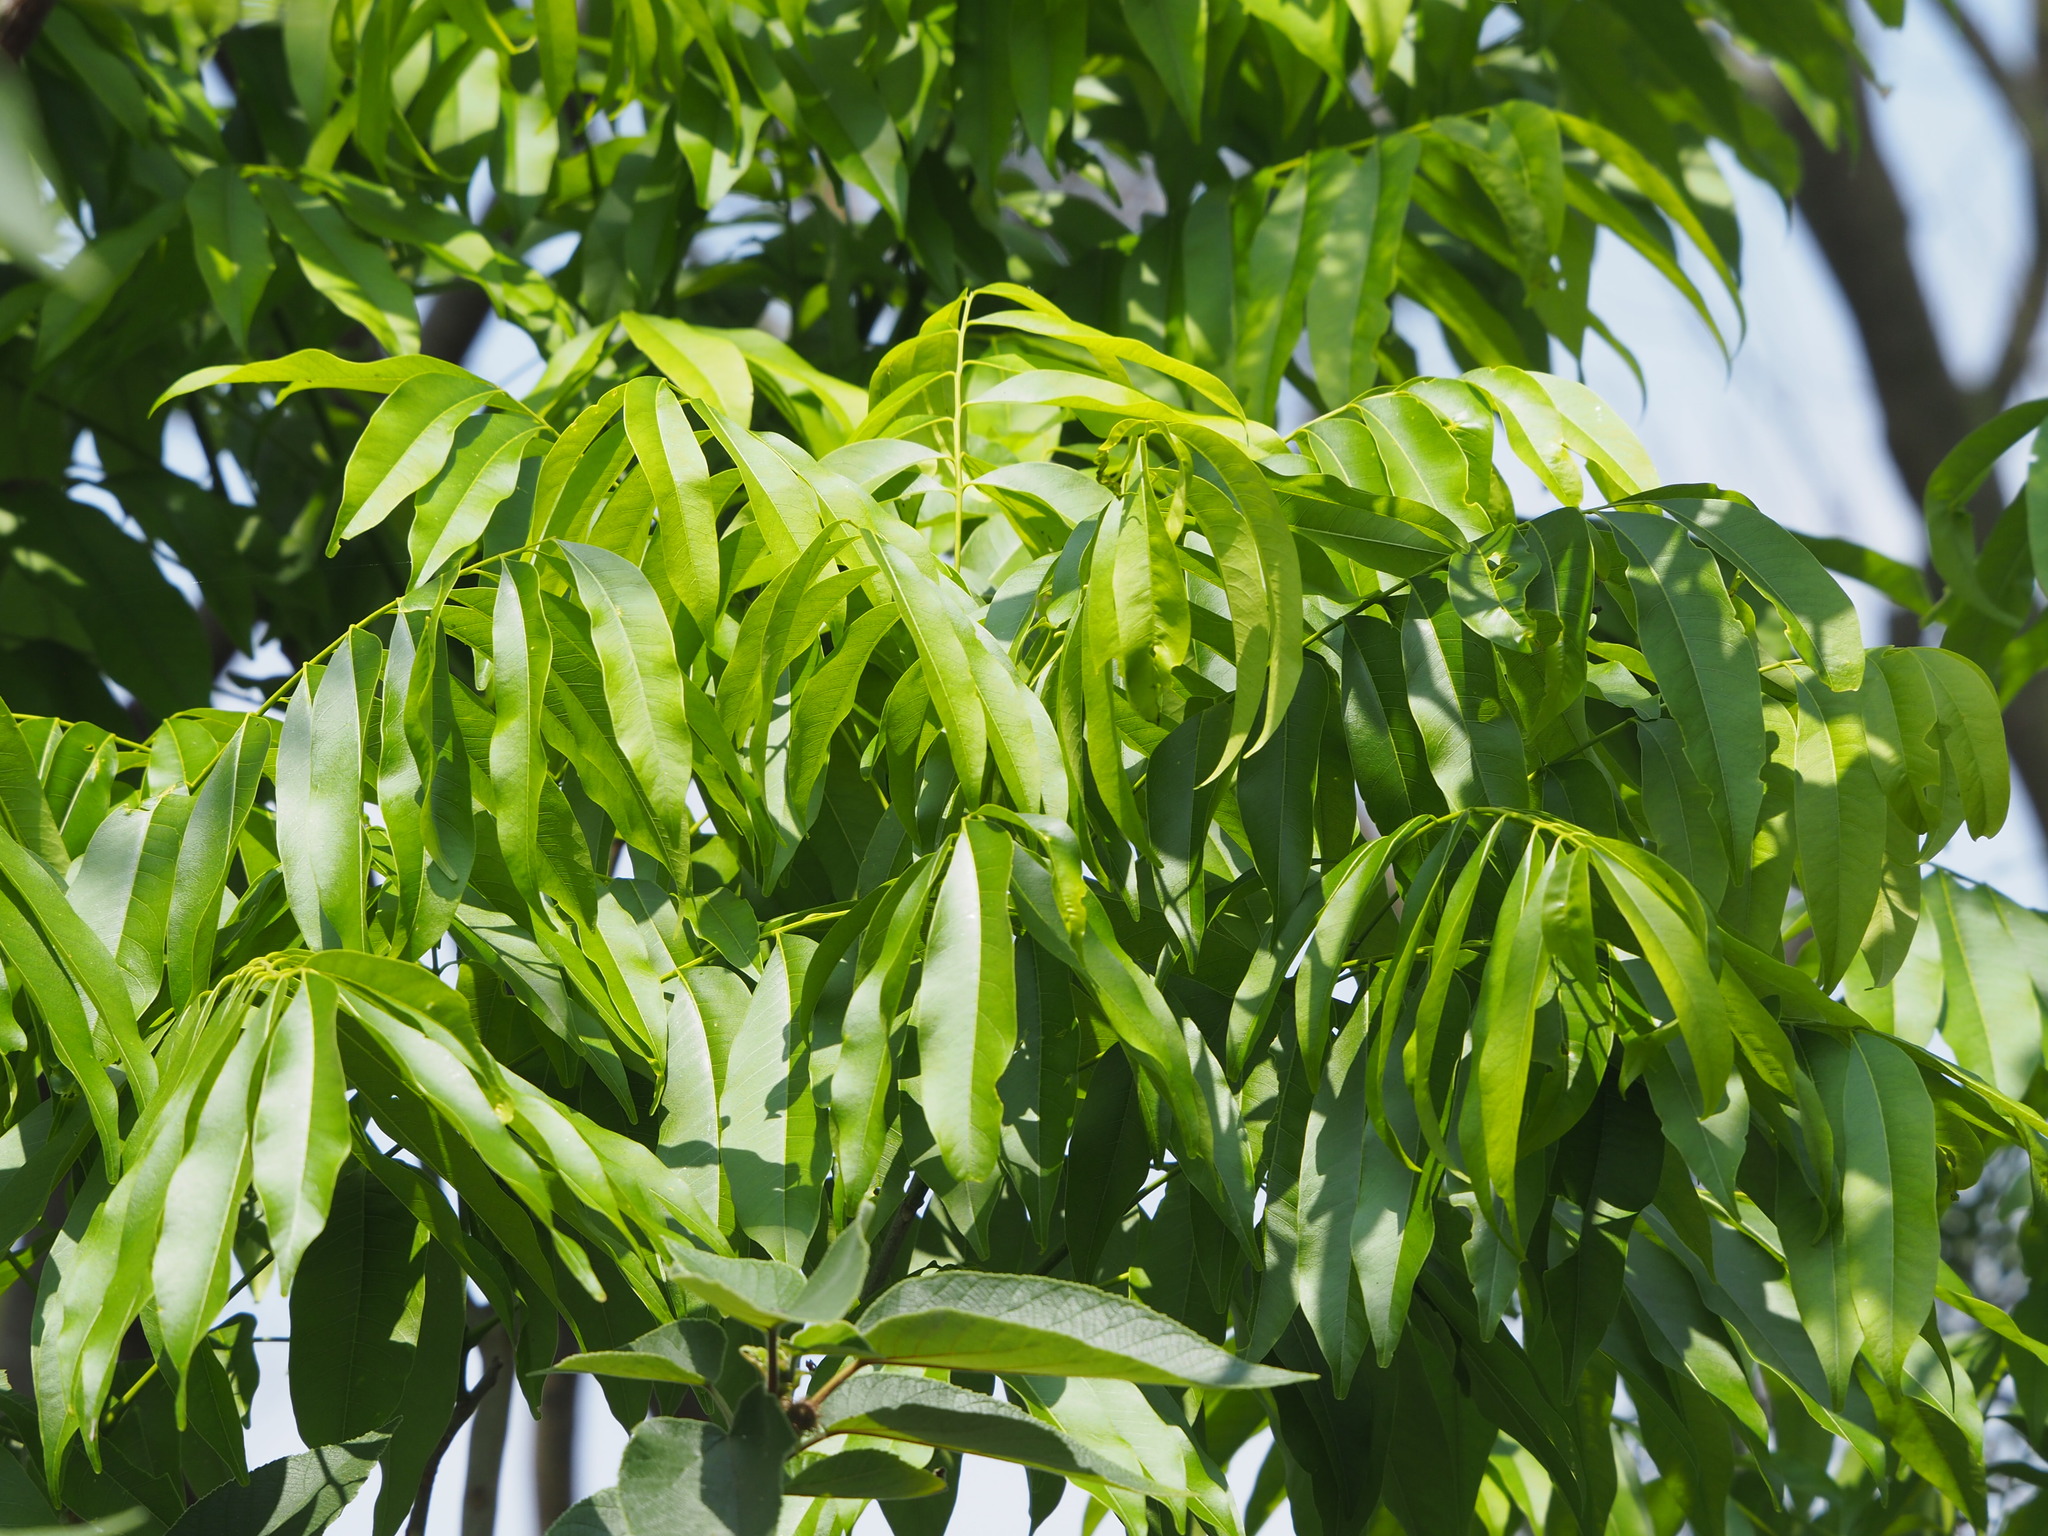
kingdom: Plantae
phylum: Tracheophyta
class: Magnoliopsida
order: Sapindales
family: Sapindaceae
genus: Sapindus
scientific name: Sapindus mukorossi
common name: Chinese soapberry
